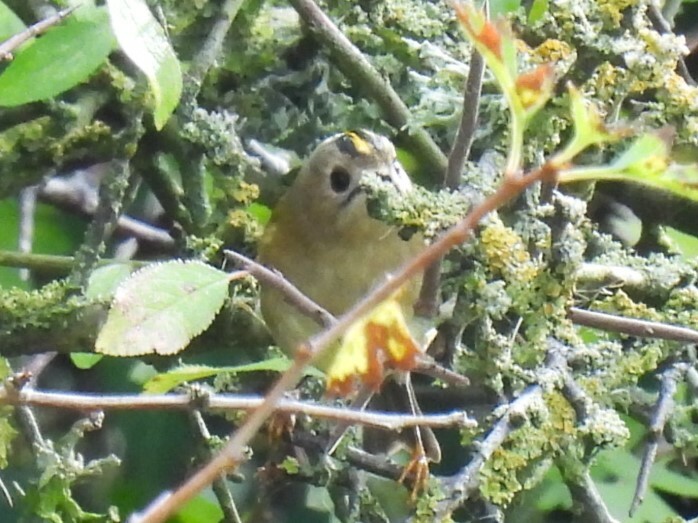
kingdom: Animalia
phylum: Chordata
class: Aves
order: Passeriformes
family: Regulidae
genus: Regulus
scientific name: Regulus regulus
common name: Goldcrest
